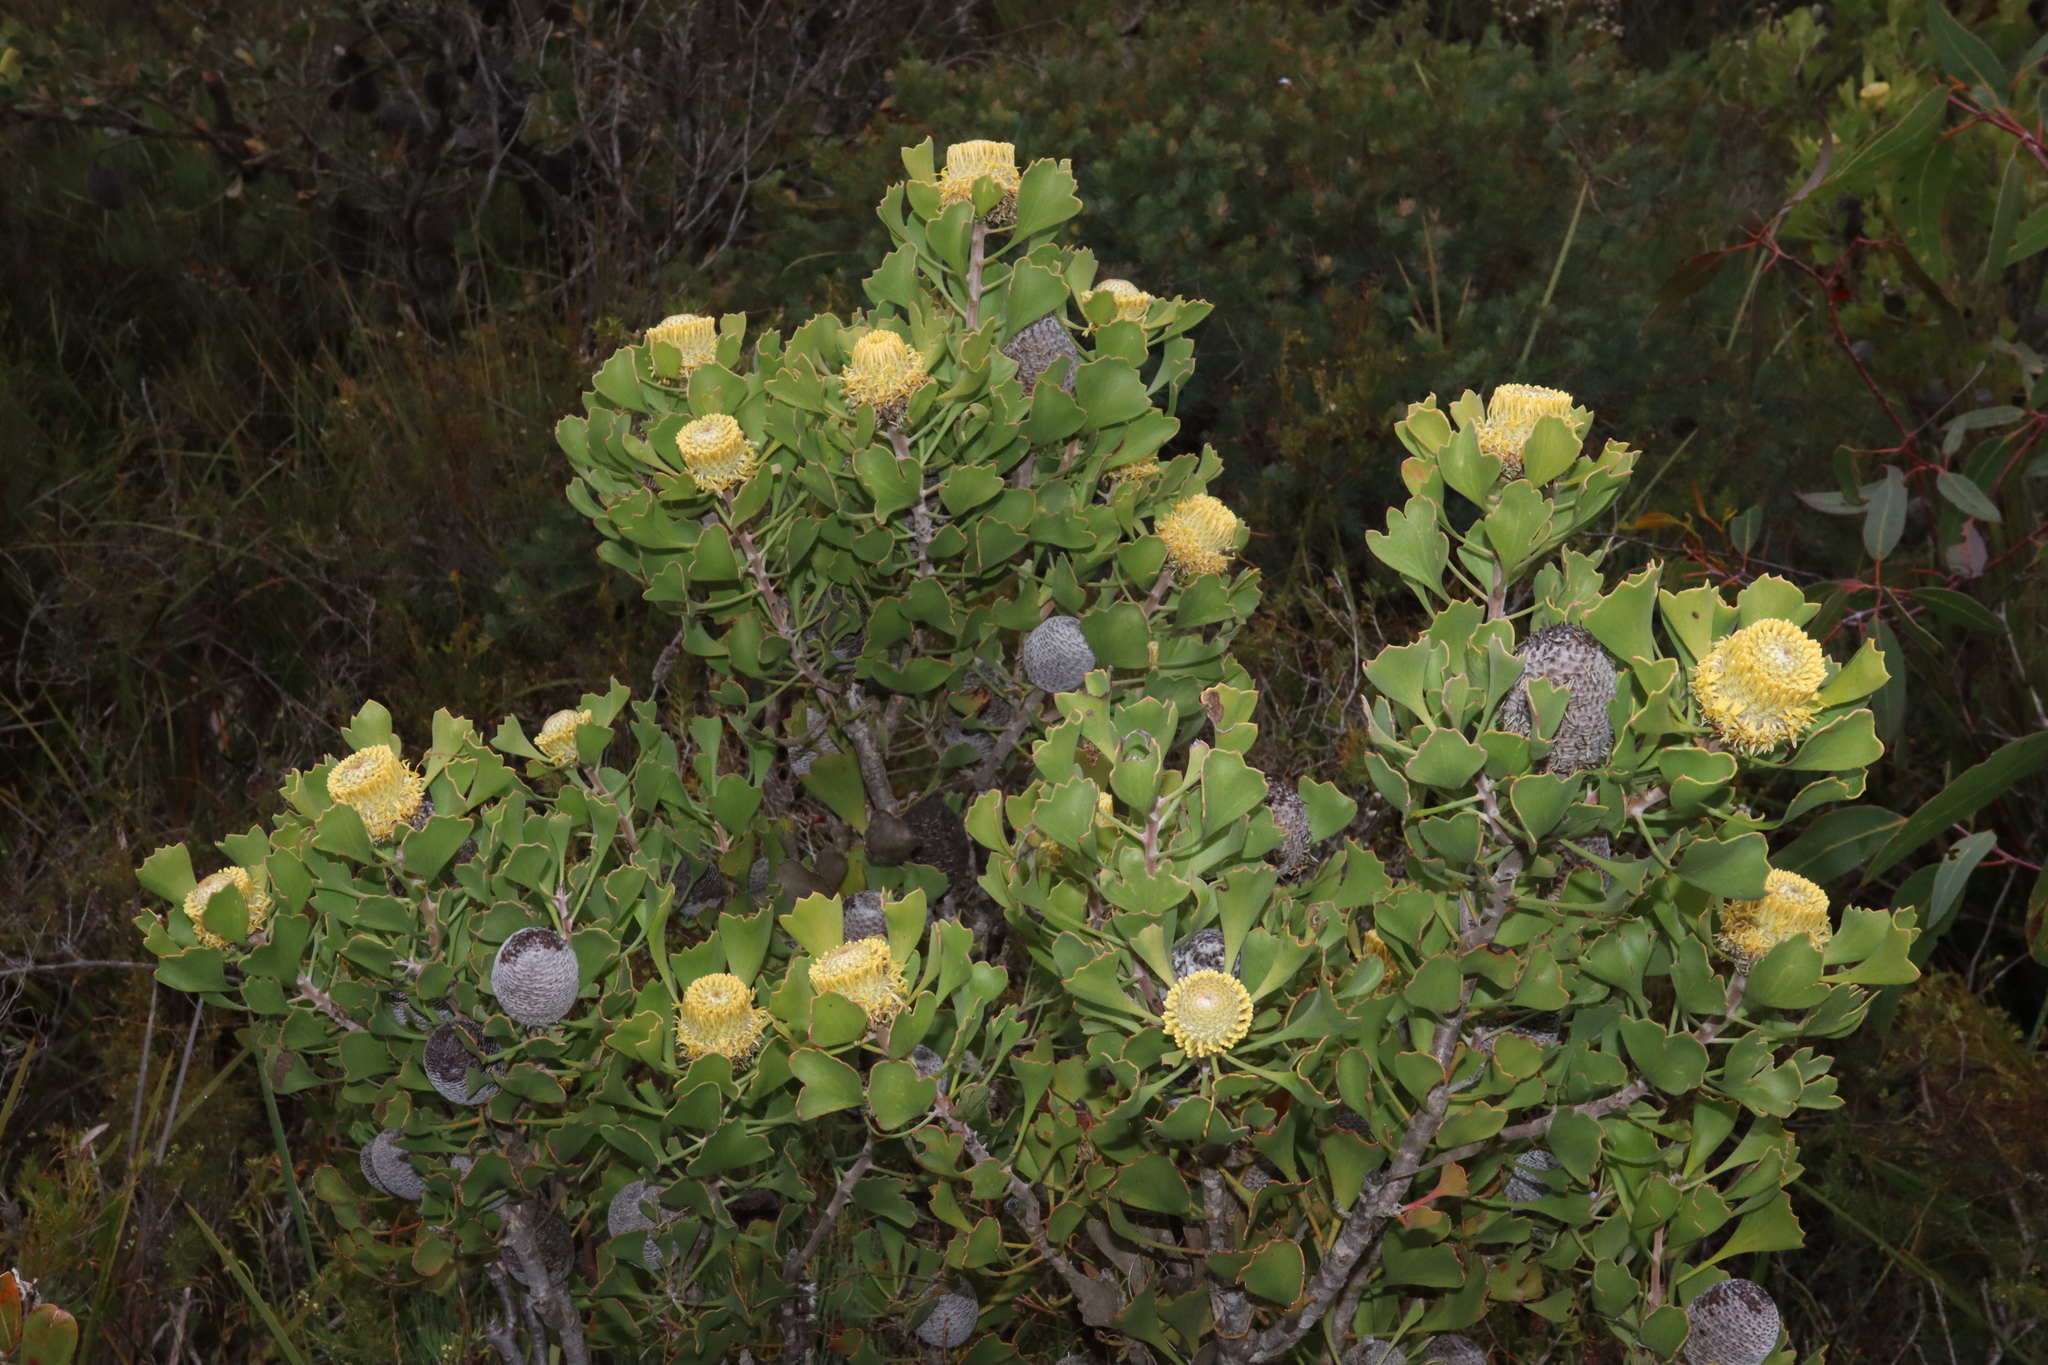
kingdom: Plantae
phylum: Tracheophyta
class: Magnoliopsida
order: Proteales
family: Proteaceae
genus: Isopogon
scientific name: Isopogon trilobus
